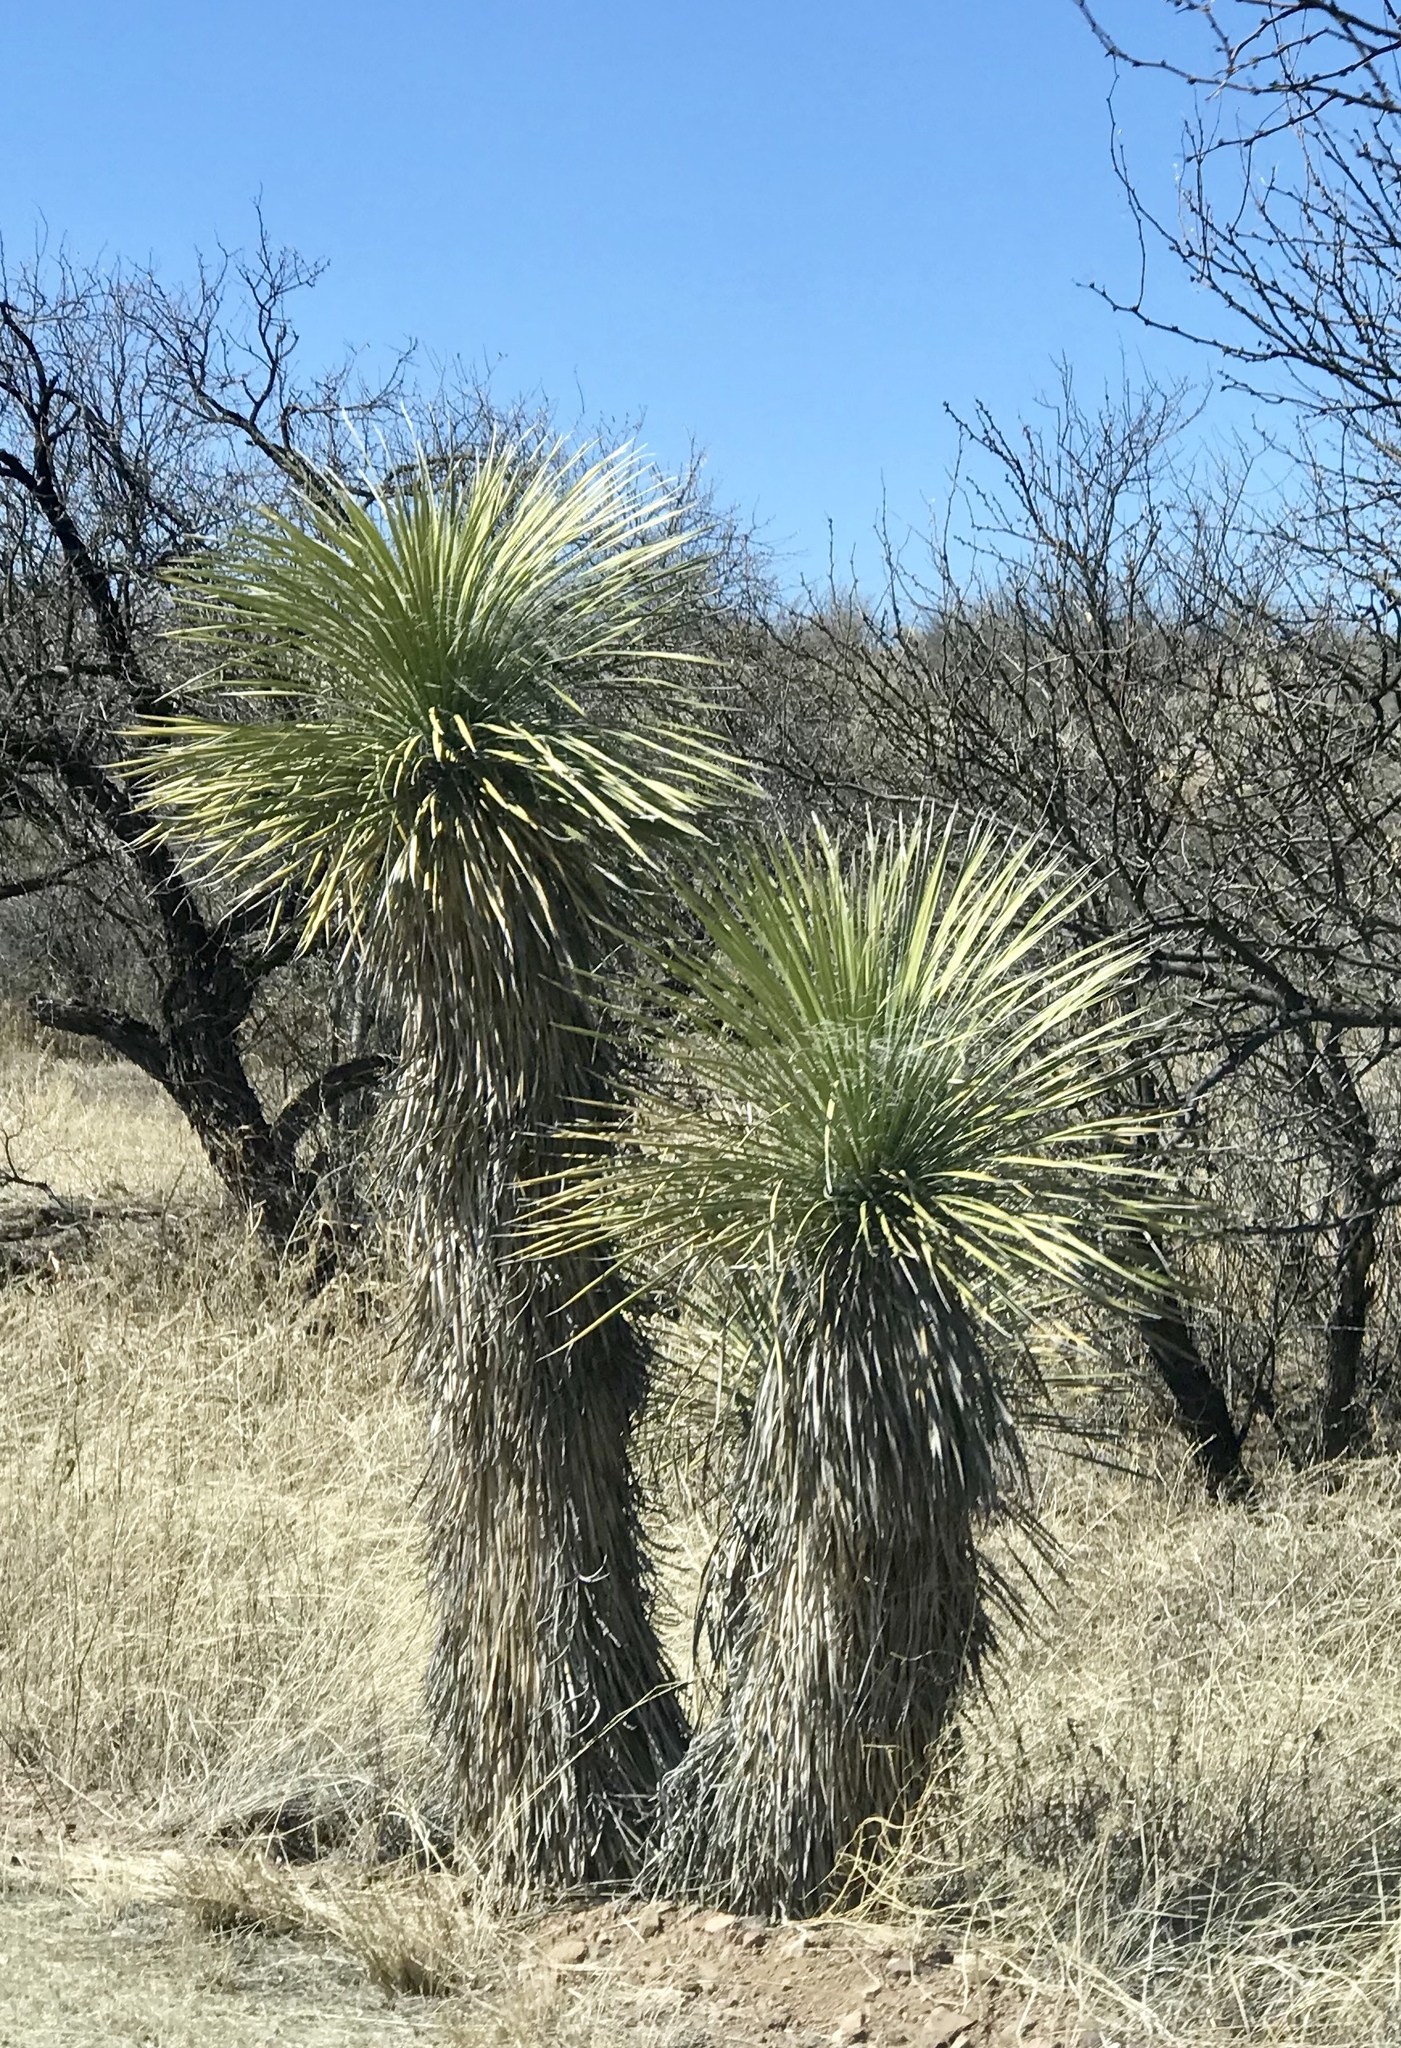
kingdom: Plantae
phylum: Tracheophyta
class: Liliopsida
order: Asparagales
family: Asparagaceae
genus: Yucca
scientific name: Yucca elata
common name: Palmella
